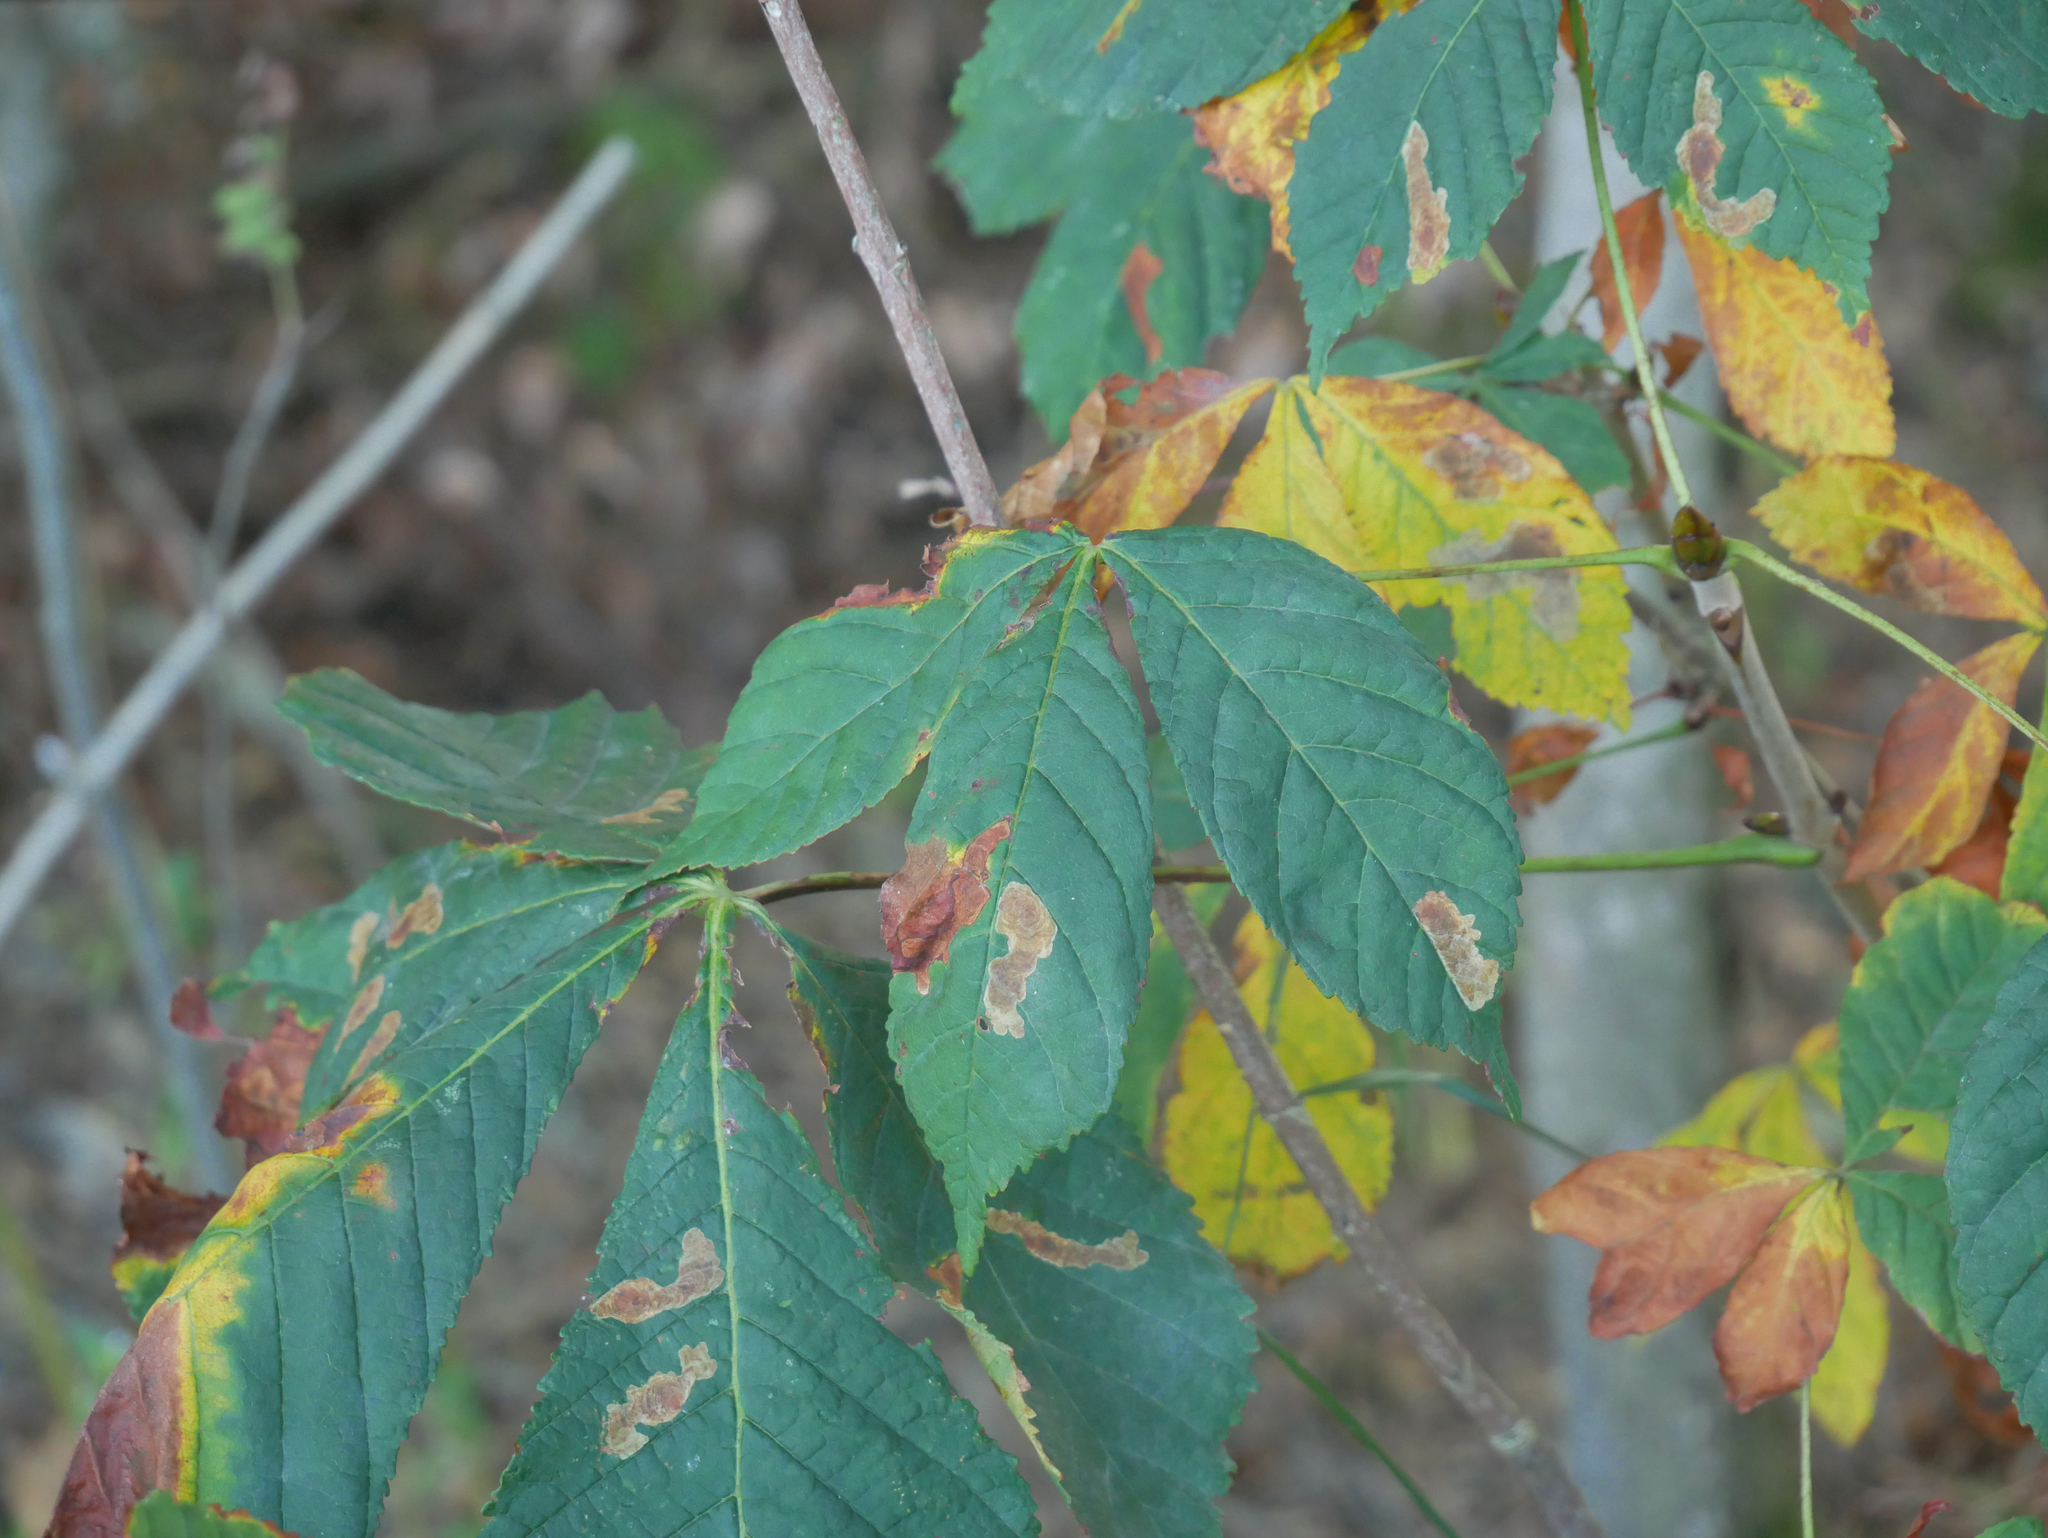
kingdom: Plantae
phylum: Tracheophyta
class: Magnoliopsida
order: Sapindales
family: Sapindaceae
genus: Aesculus
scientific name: Aesculus hippocastanum
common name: Horse-chestnut
